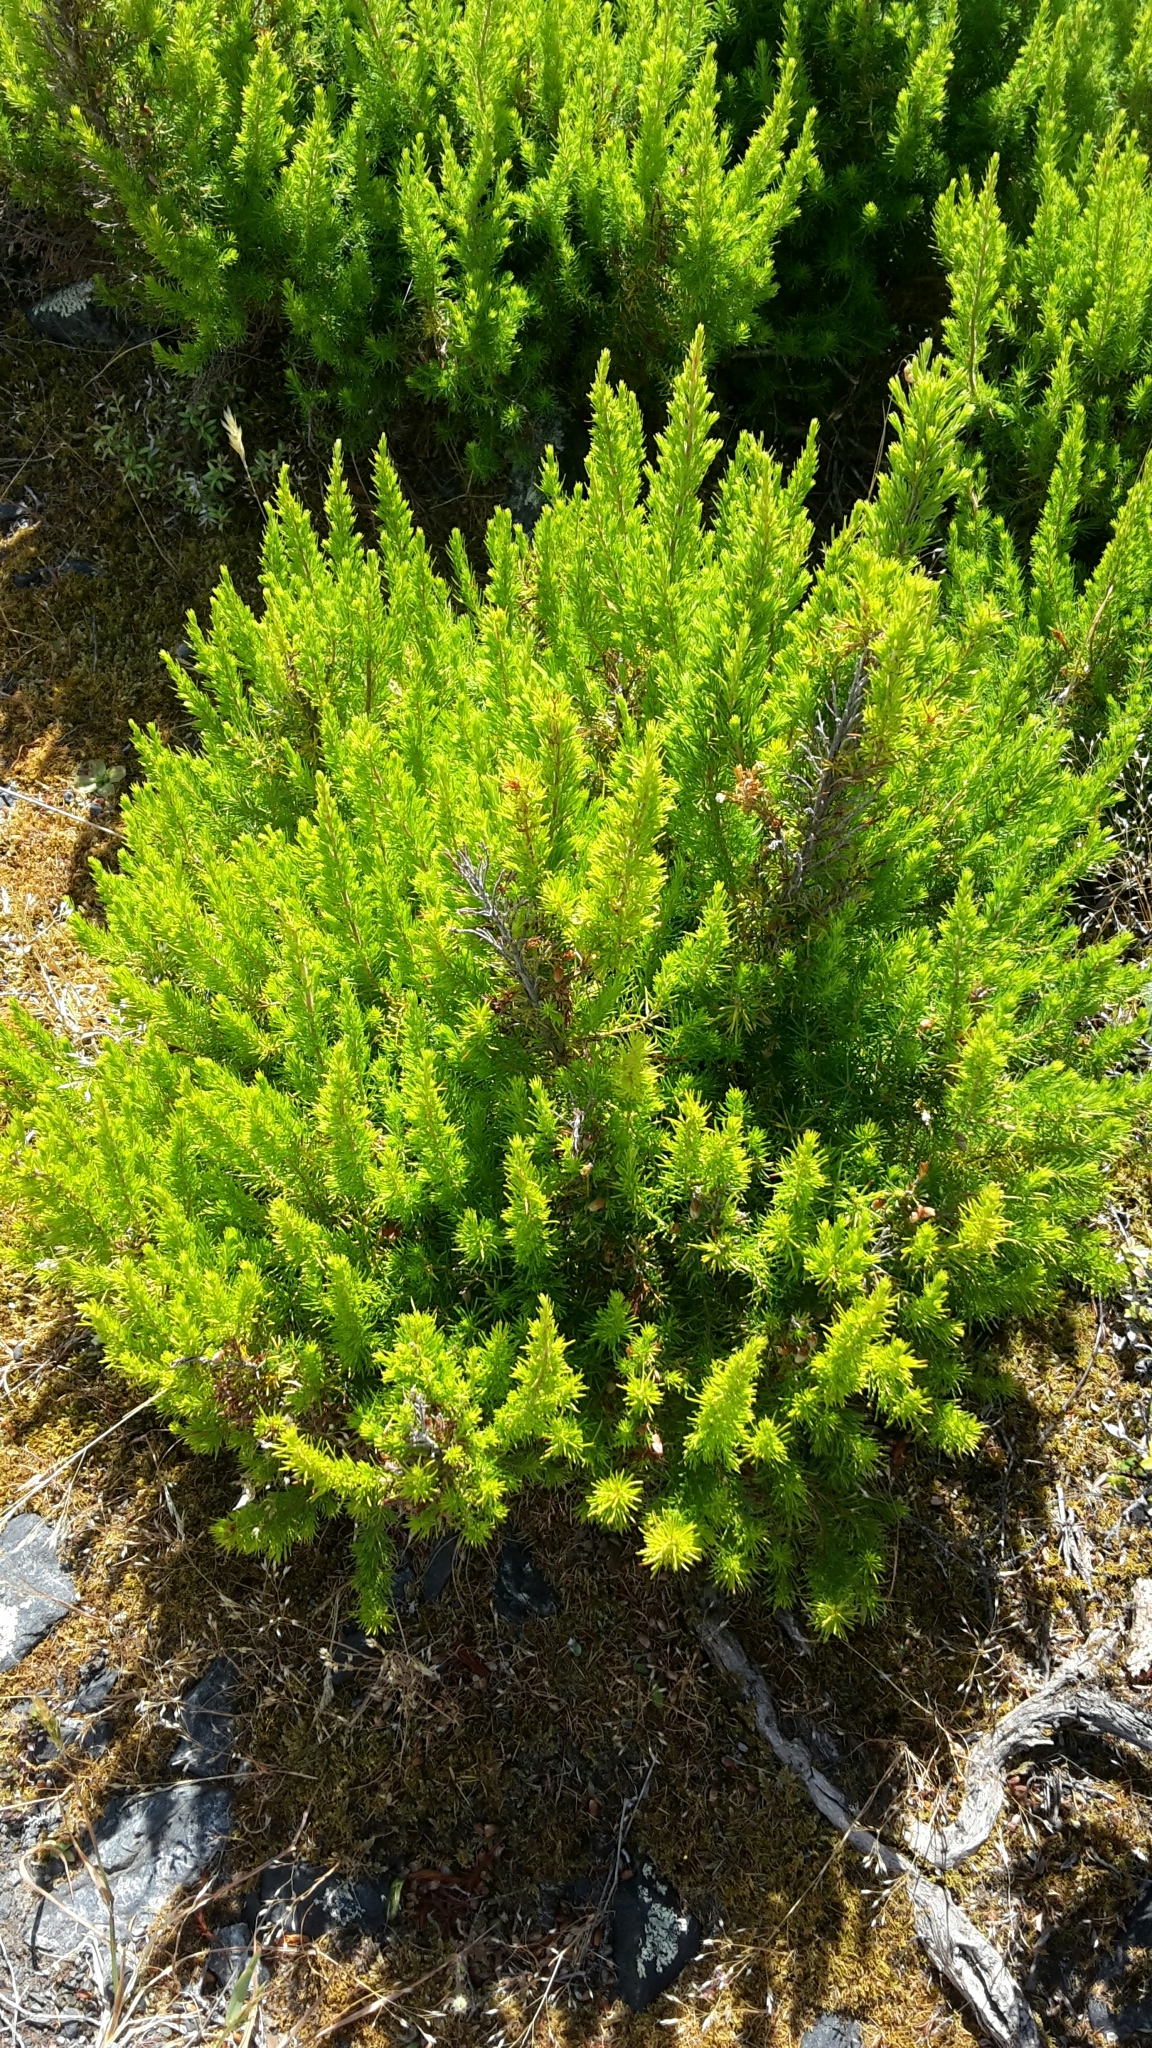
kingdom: Plantae
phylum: Tracheophyta
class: Magnoliopsida
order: Ericales
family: Ericaceae
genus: Erica
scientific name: Erica lusitanica
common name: Spanish heath
